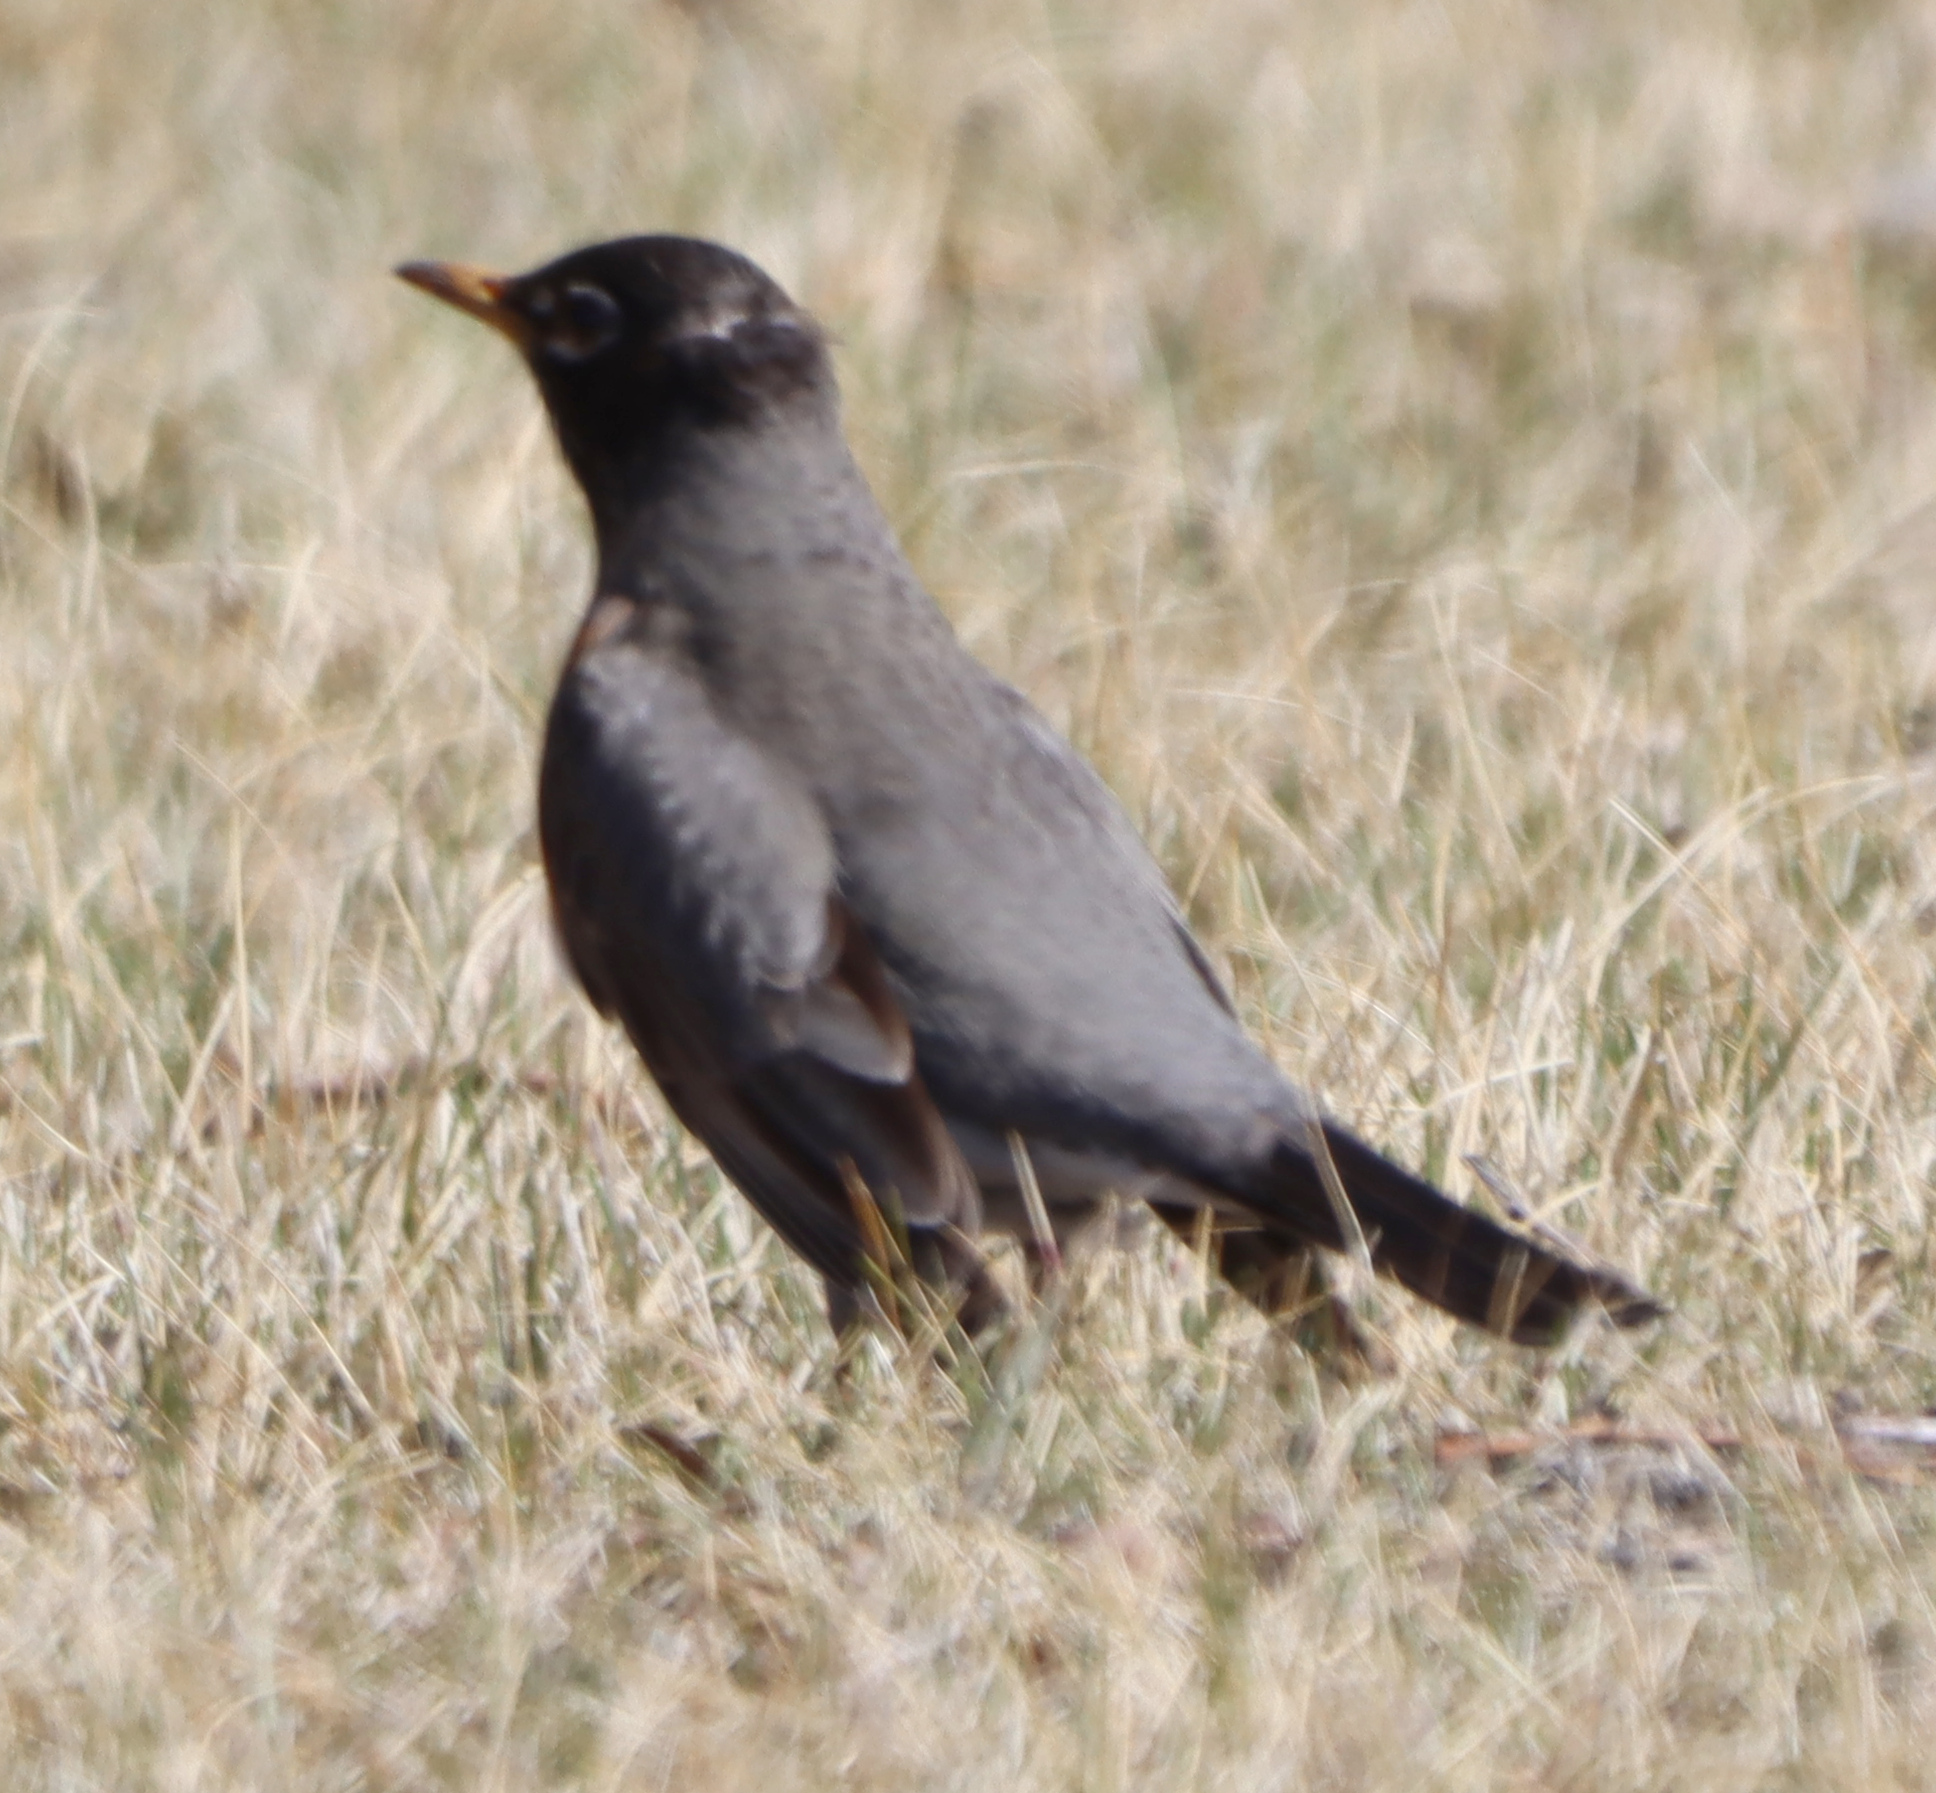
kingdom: Animalia
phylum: Chordata
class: Aves
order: Passeriformes
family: Turdidae
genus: Turdus
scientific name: Turdus migratorius
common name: American robin
